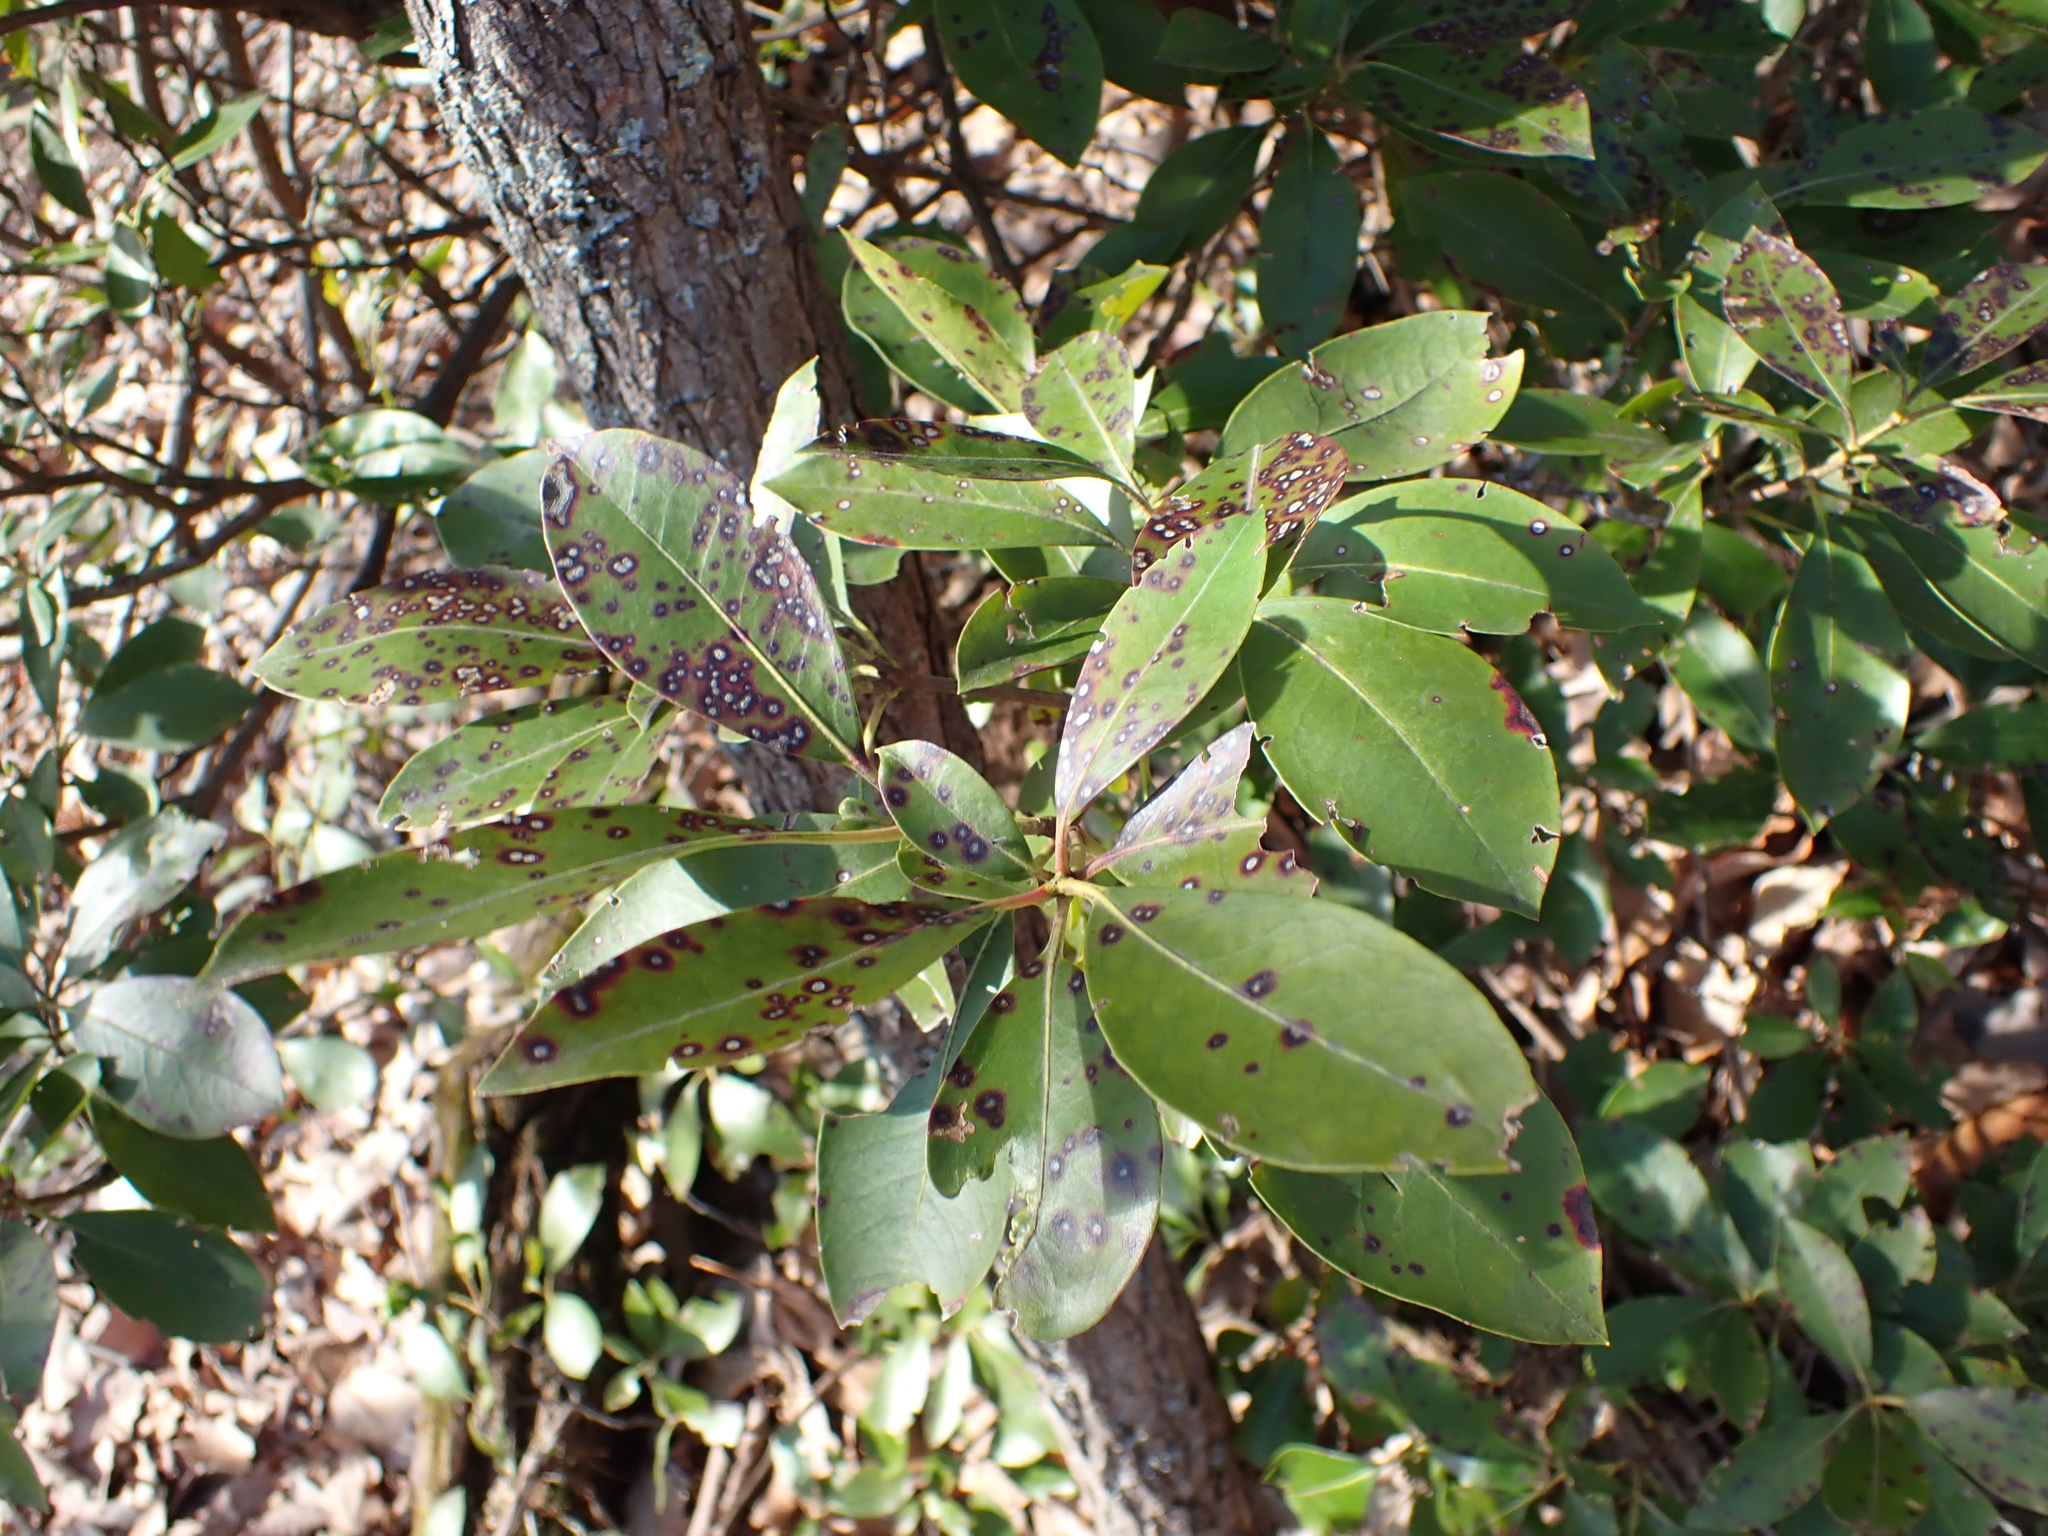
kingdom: Plantae
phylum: Tracheophyta
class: Magnoliopsida
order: Ericales
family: Ericaceae
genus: Kalmia
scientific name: Kalmia latifolia
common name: Mountain-laurel
